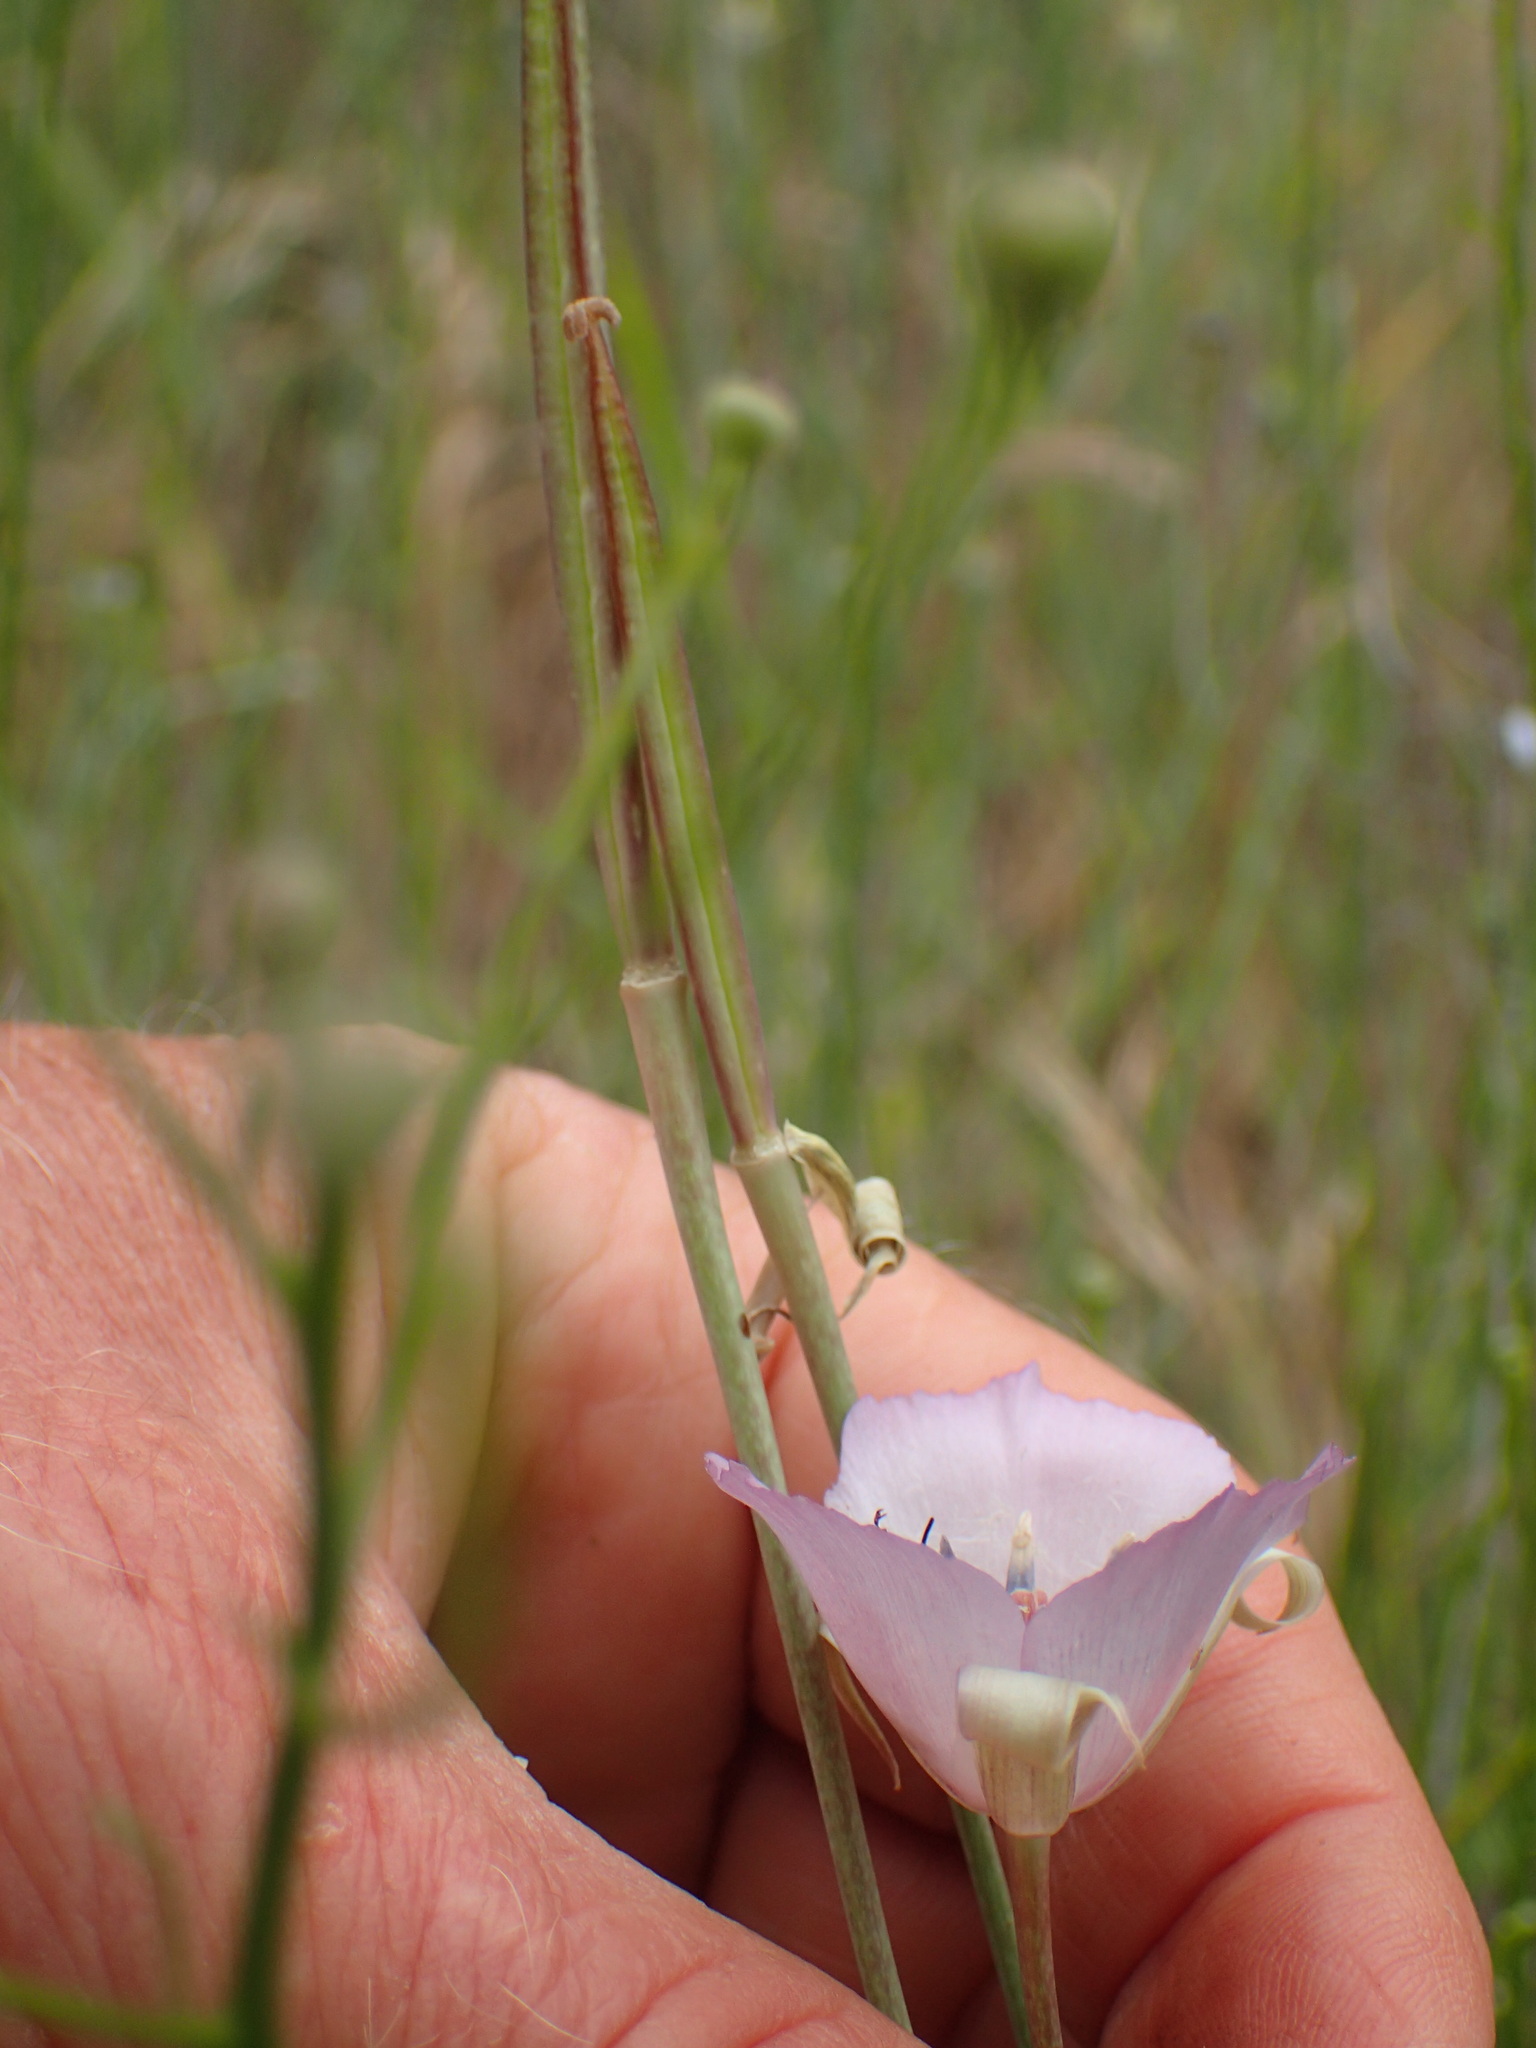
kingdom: Plantae
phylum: Tracheophyta
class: Liliopsida
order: Liliales
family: Liliaceae
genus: Calochortus
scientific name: Calochortus splendens
